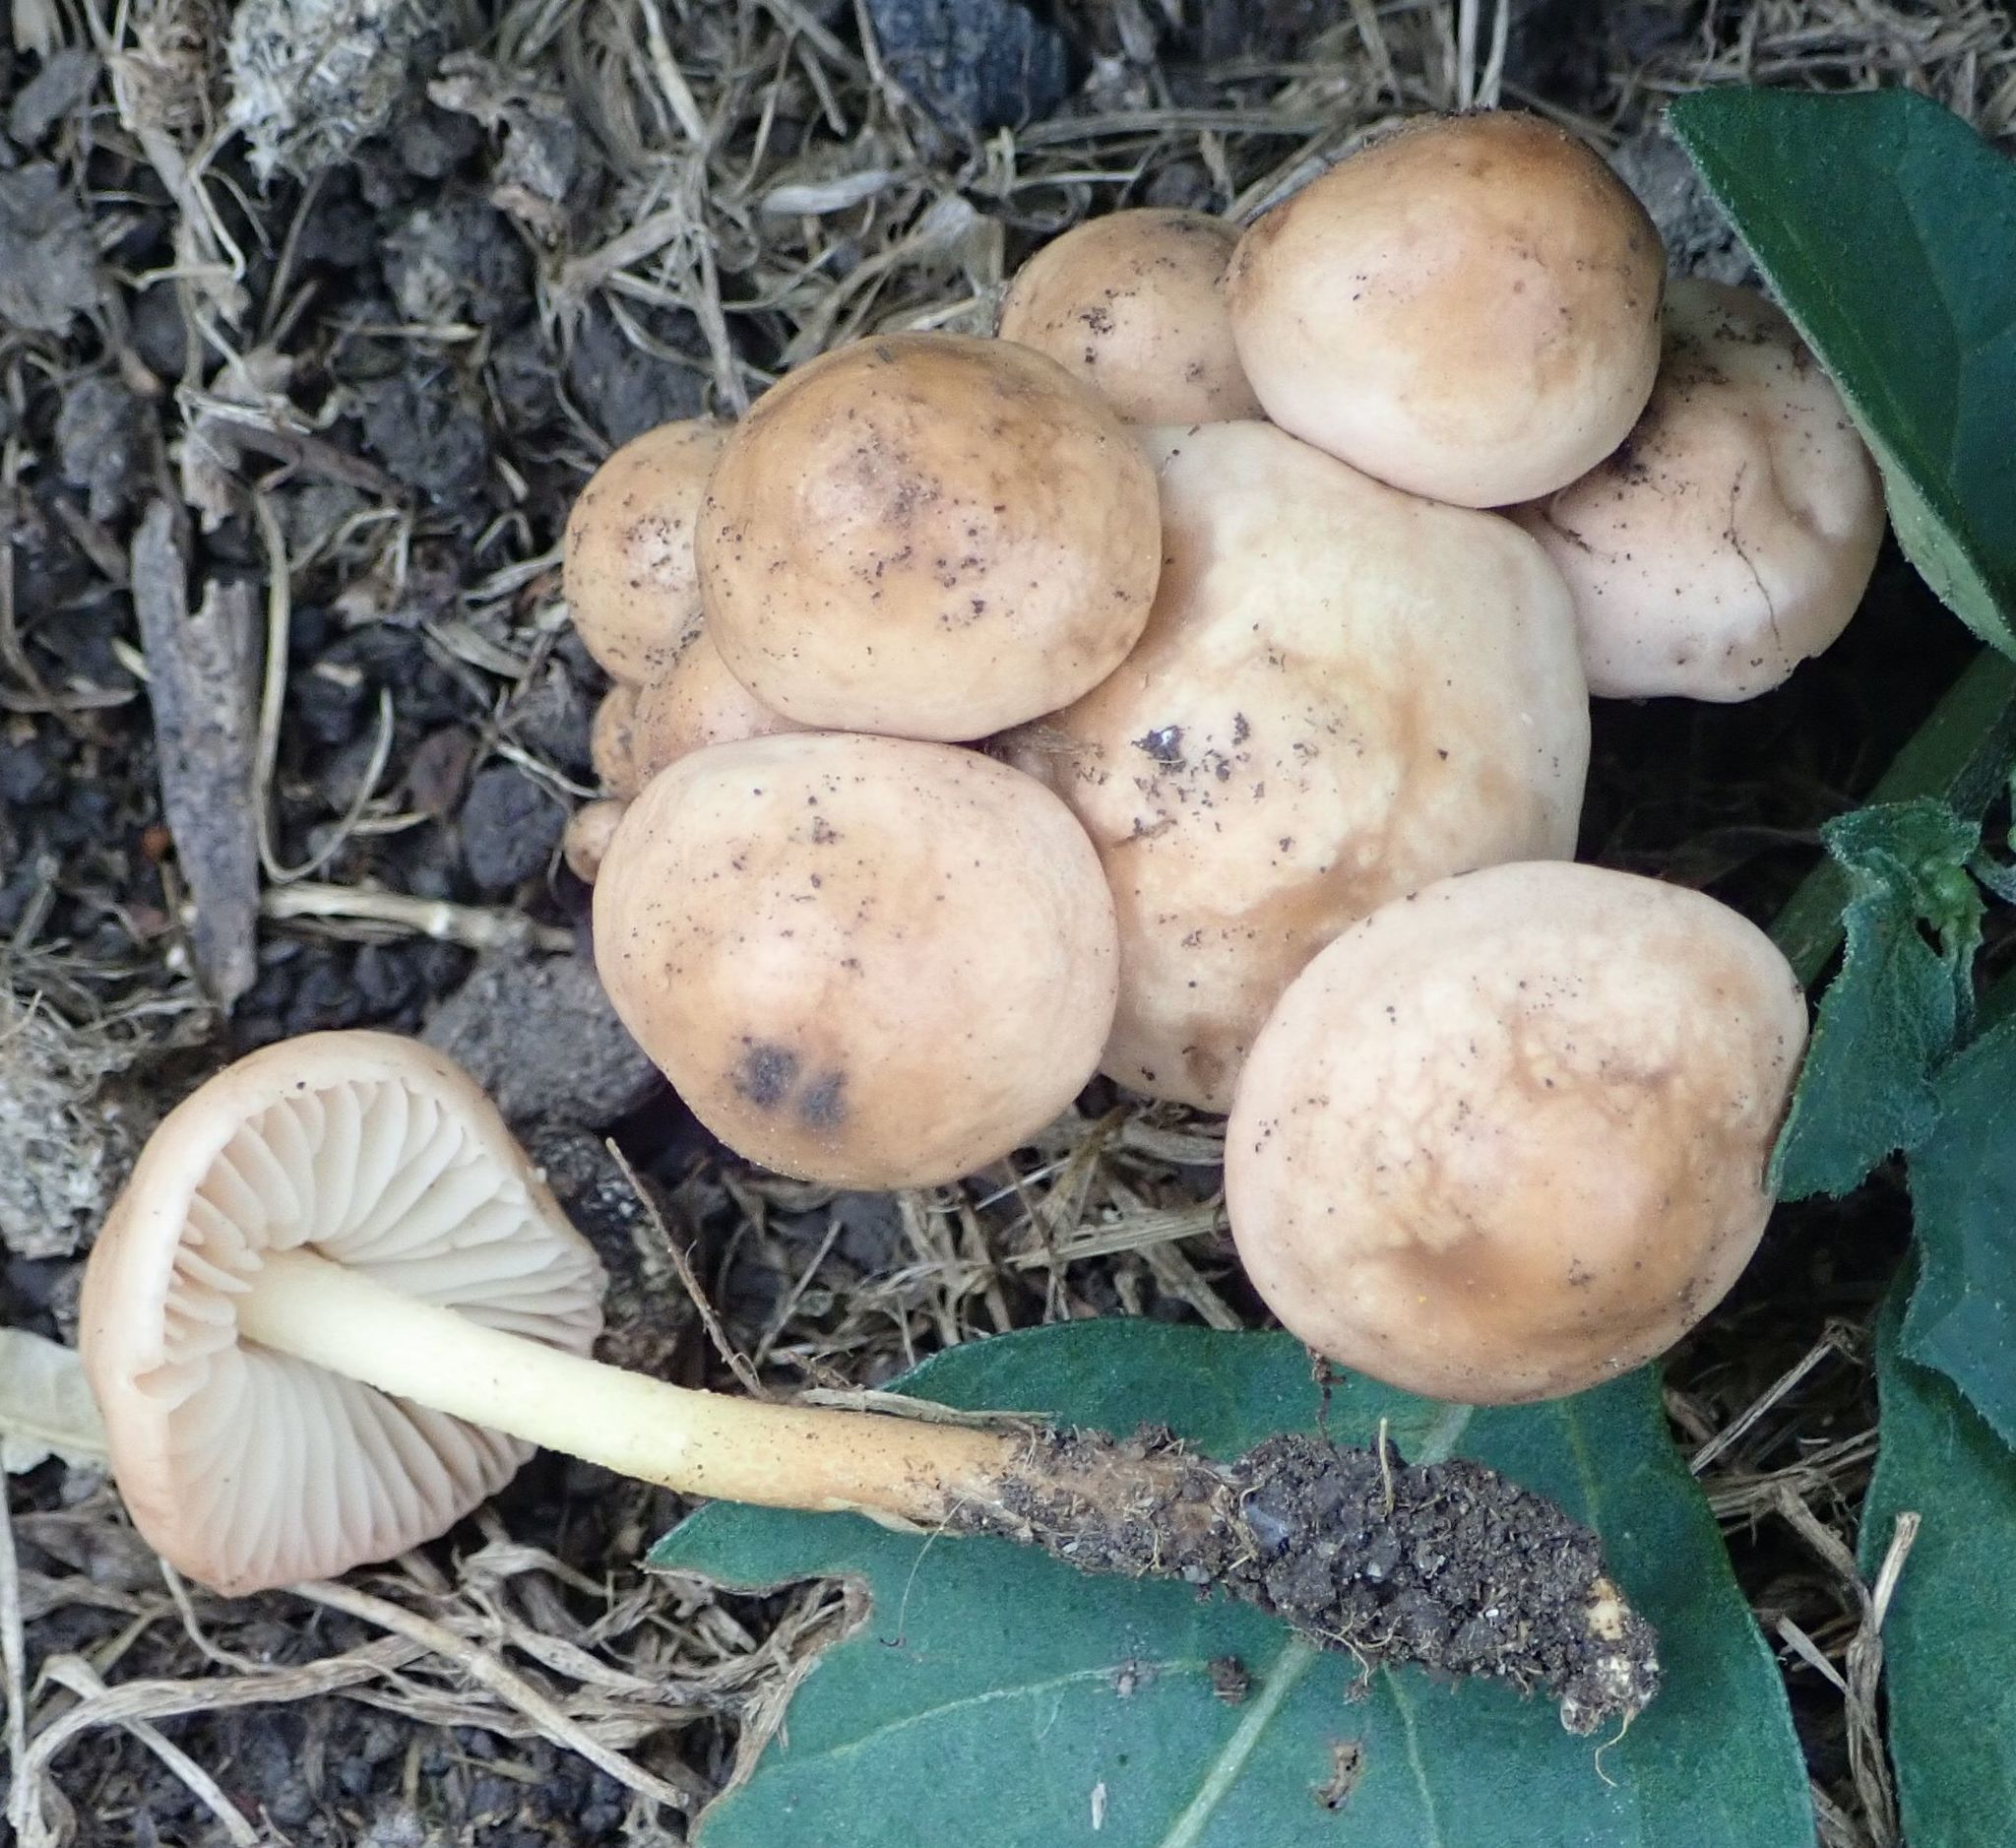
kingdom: Fungi
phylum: Basidiomycota
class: Agaricomycetes
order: Agaricales
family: Marasmiaceae
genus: Marasmius
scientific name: Marasmius oreades
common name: Fairy ring champignon
